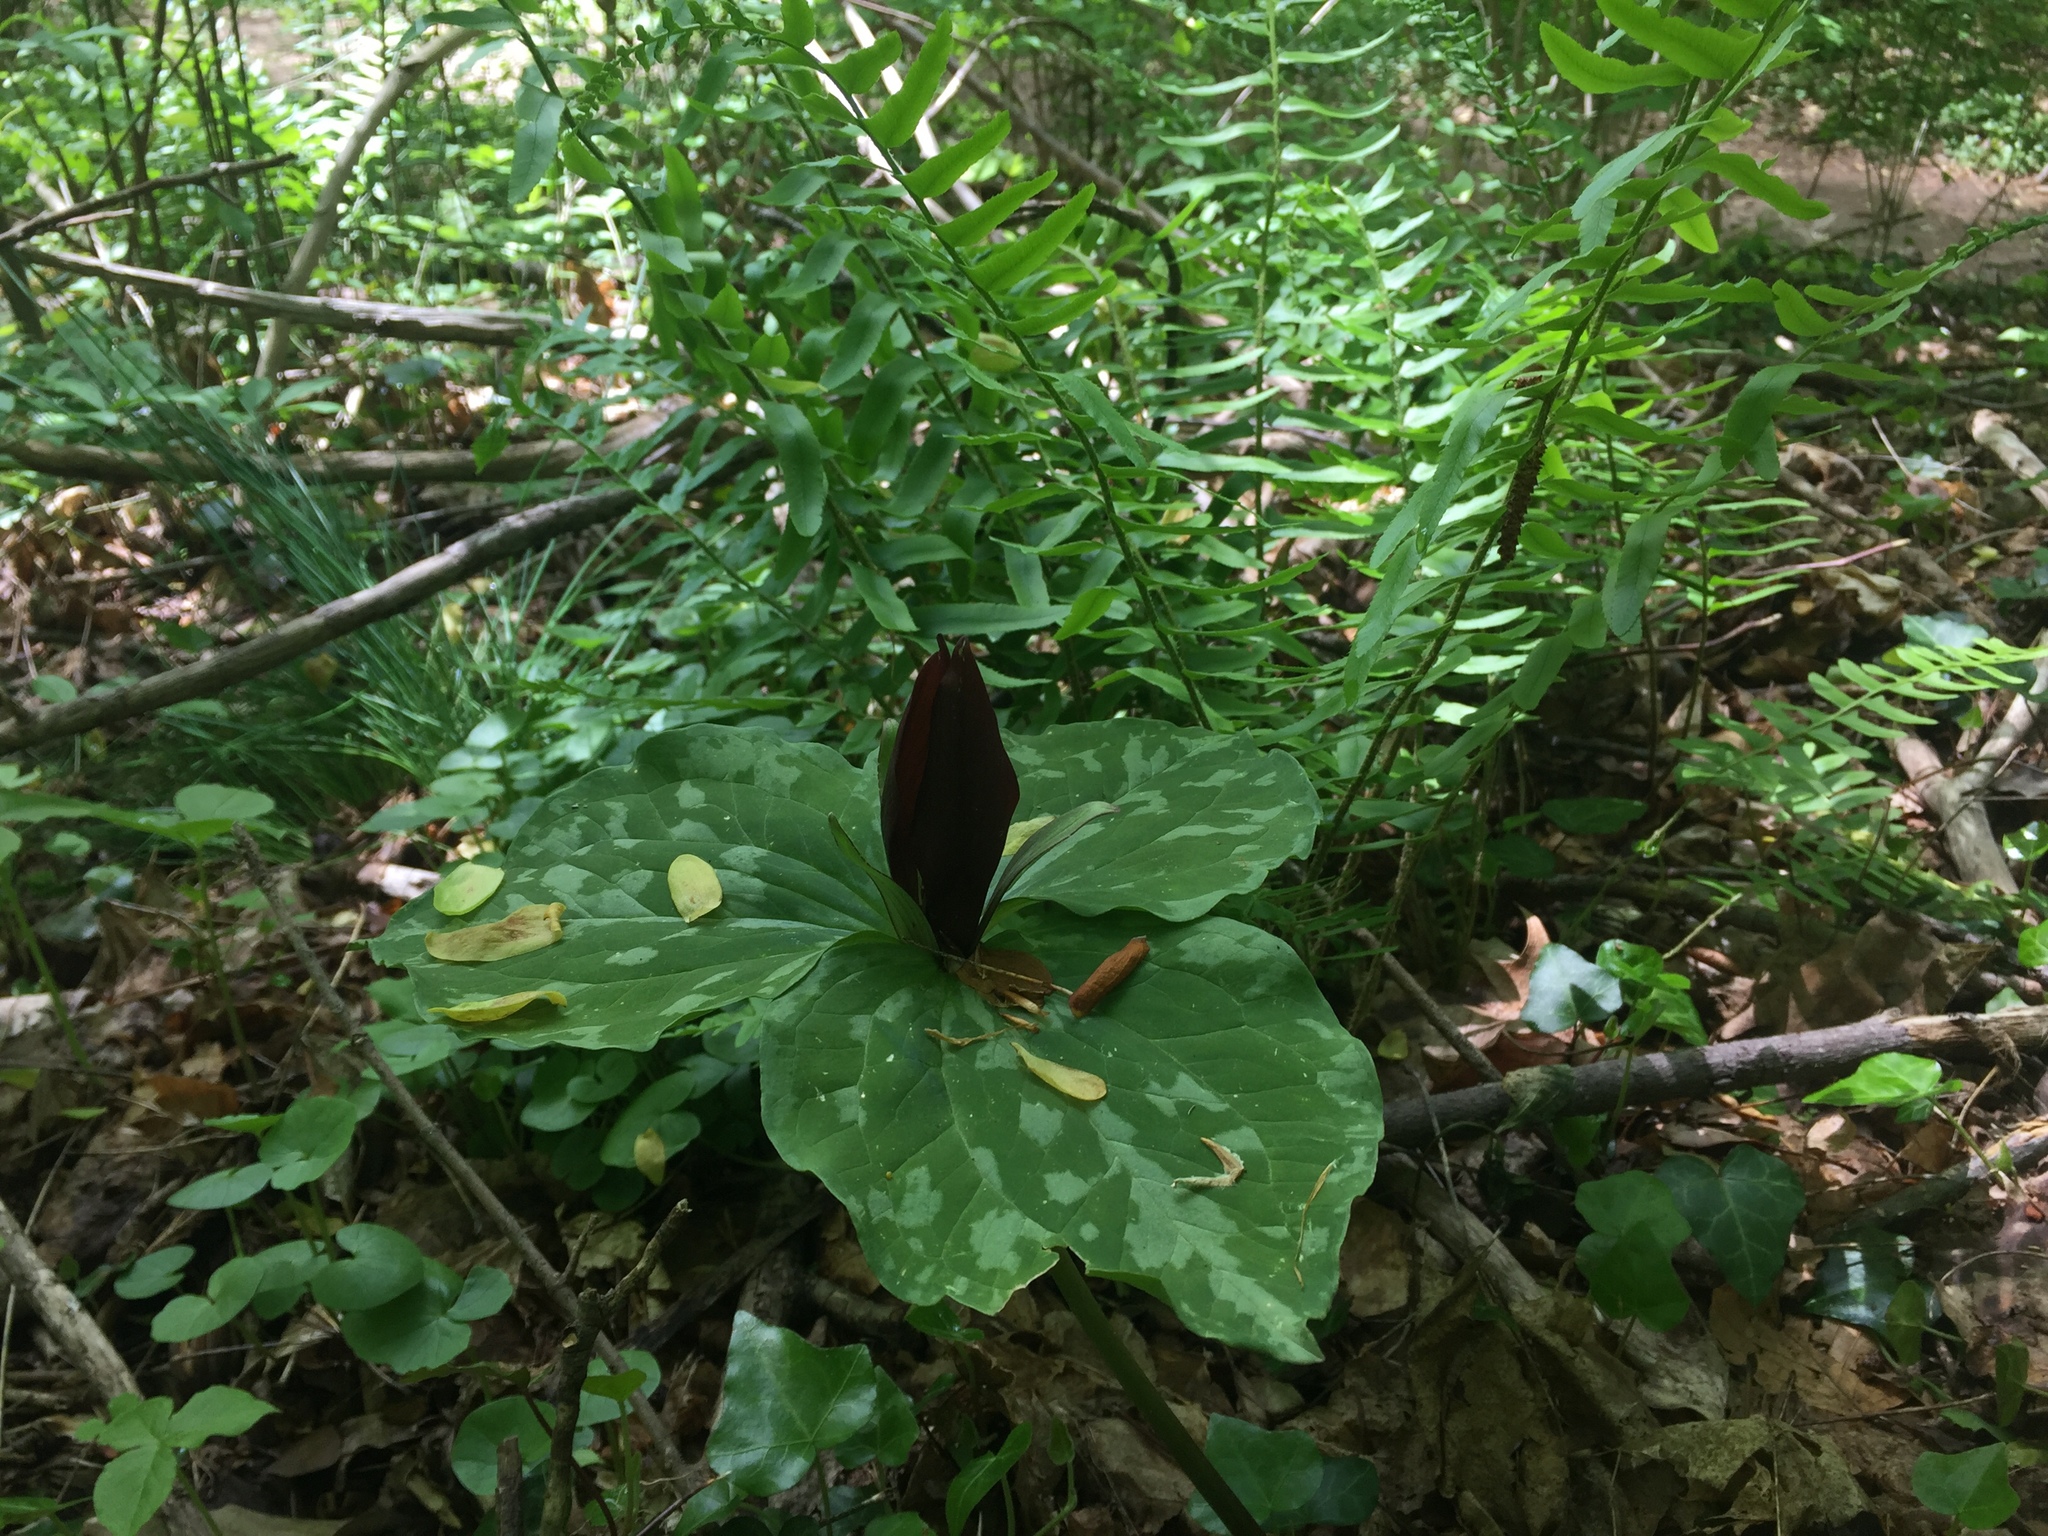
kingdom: Plantae
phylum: Tracheophyta
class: Liliopsida
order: Liliales
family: Melanthiaceae
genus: Trillium
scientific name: Trillium cuneatum
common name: Cuneate trillium
